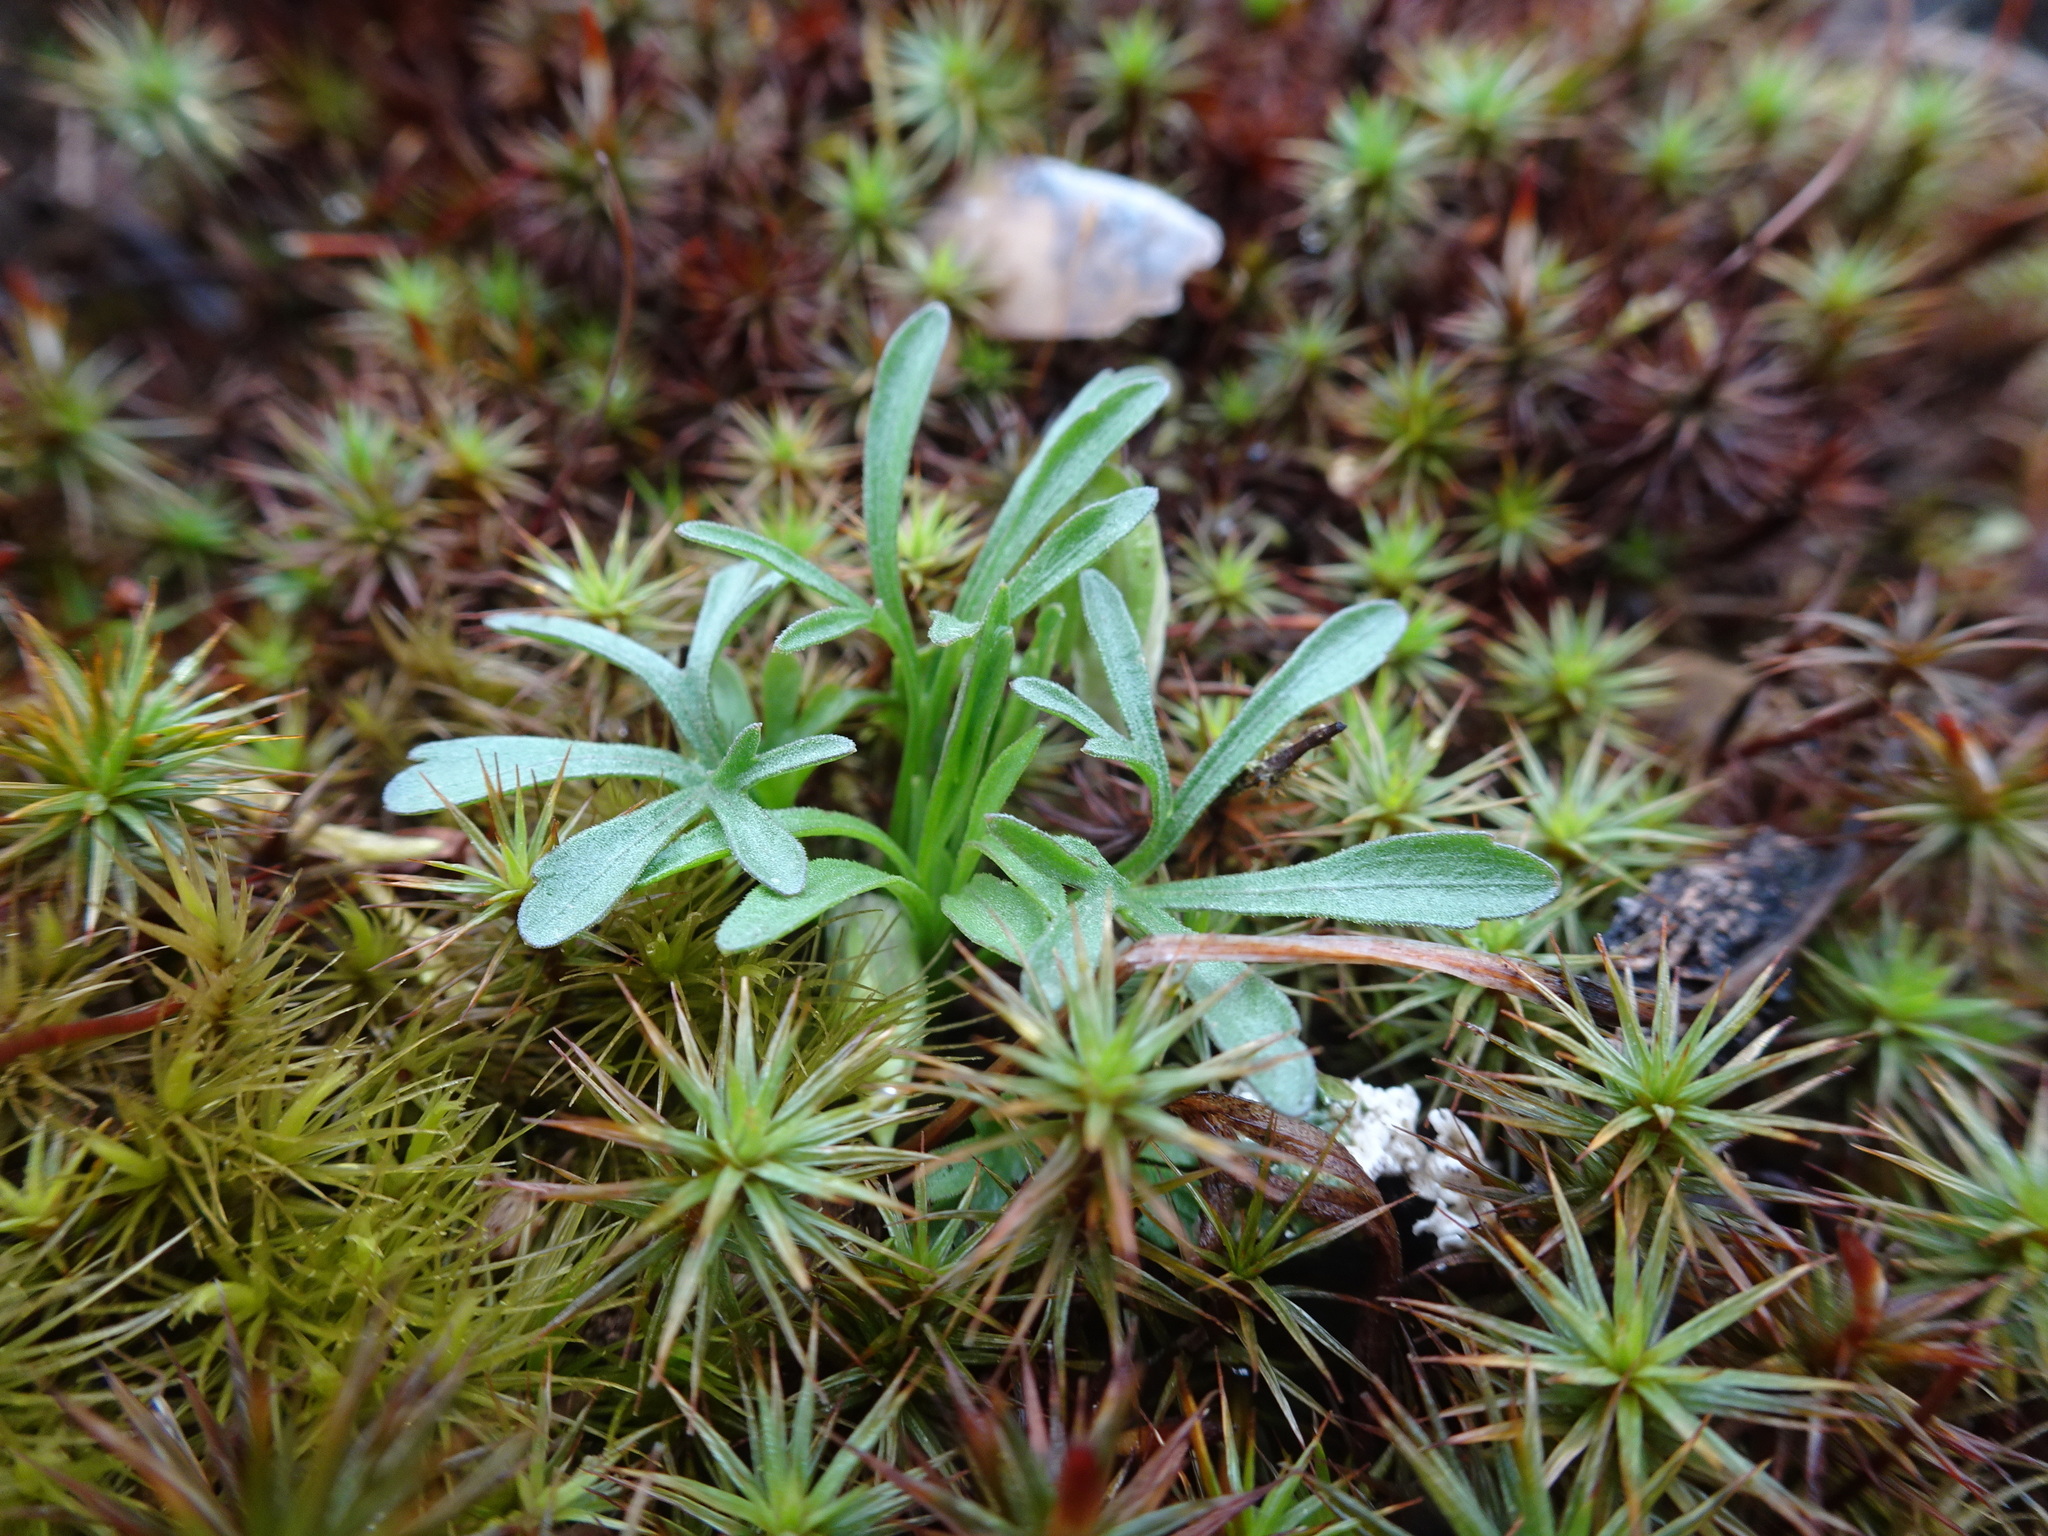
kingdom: Plantae
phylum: Tracheophyta
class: Magnoliopsida
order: Malpighiales
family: Violaceae
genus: Viola
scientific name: Viola pedata
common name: Pansy violet
